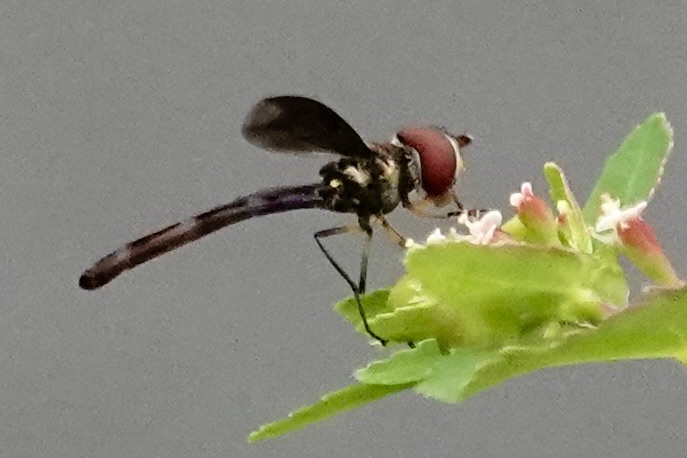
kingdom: Animalia
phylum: Arthropoda
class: Insecta
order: Diptera
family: Syrphidae
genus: Ocyptamus
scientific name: Ocyptamus fuscipennis
